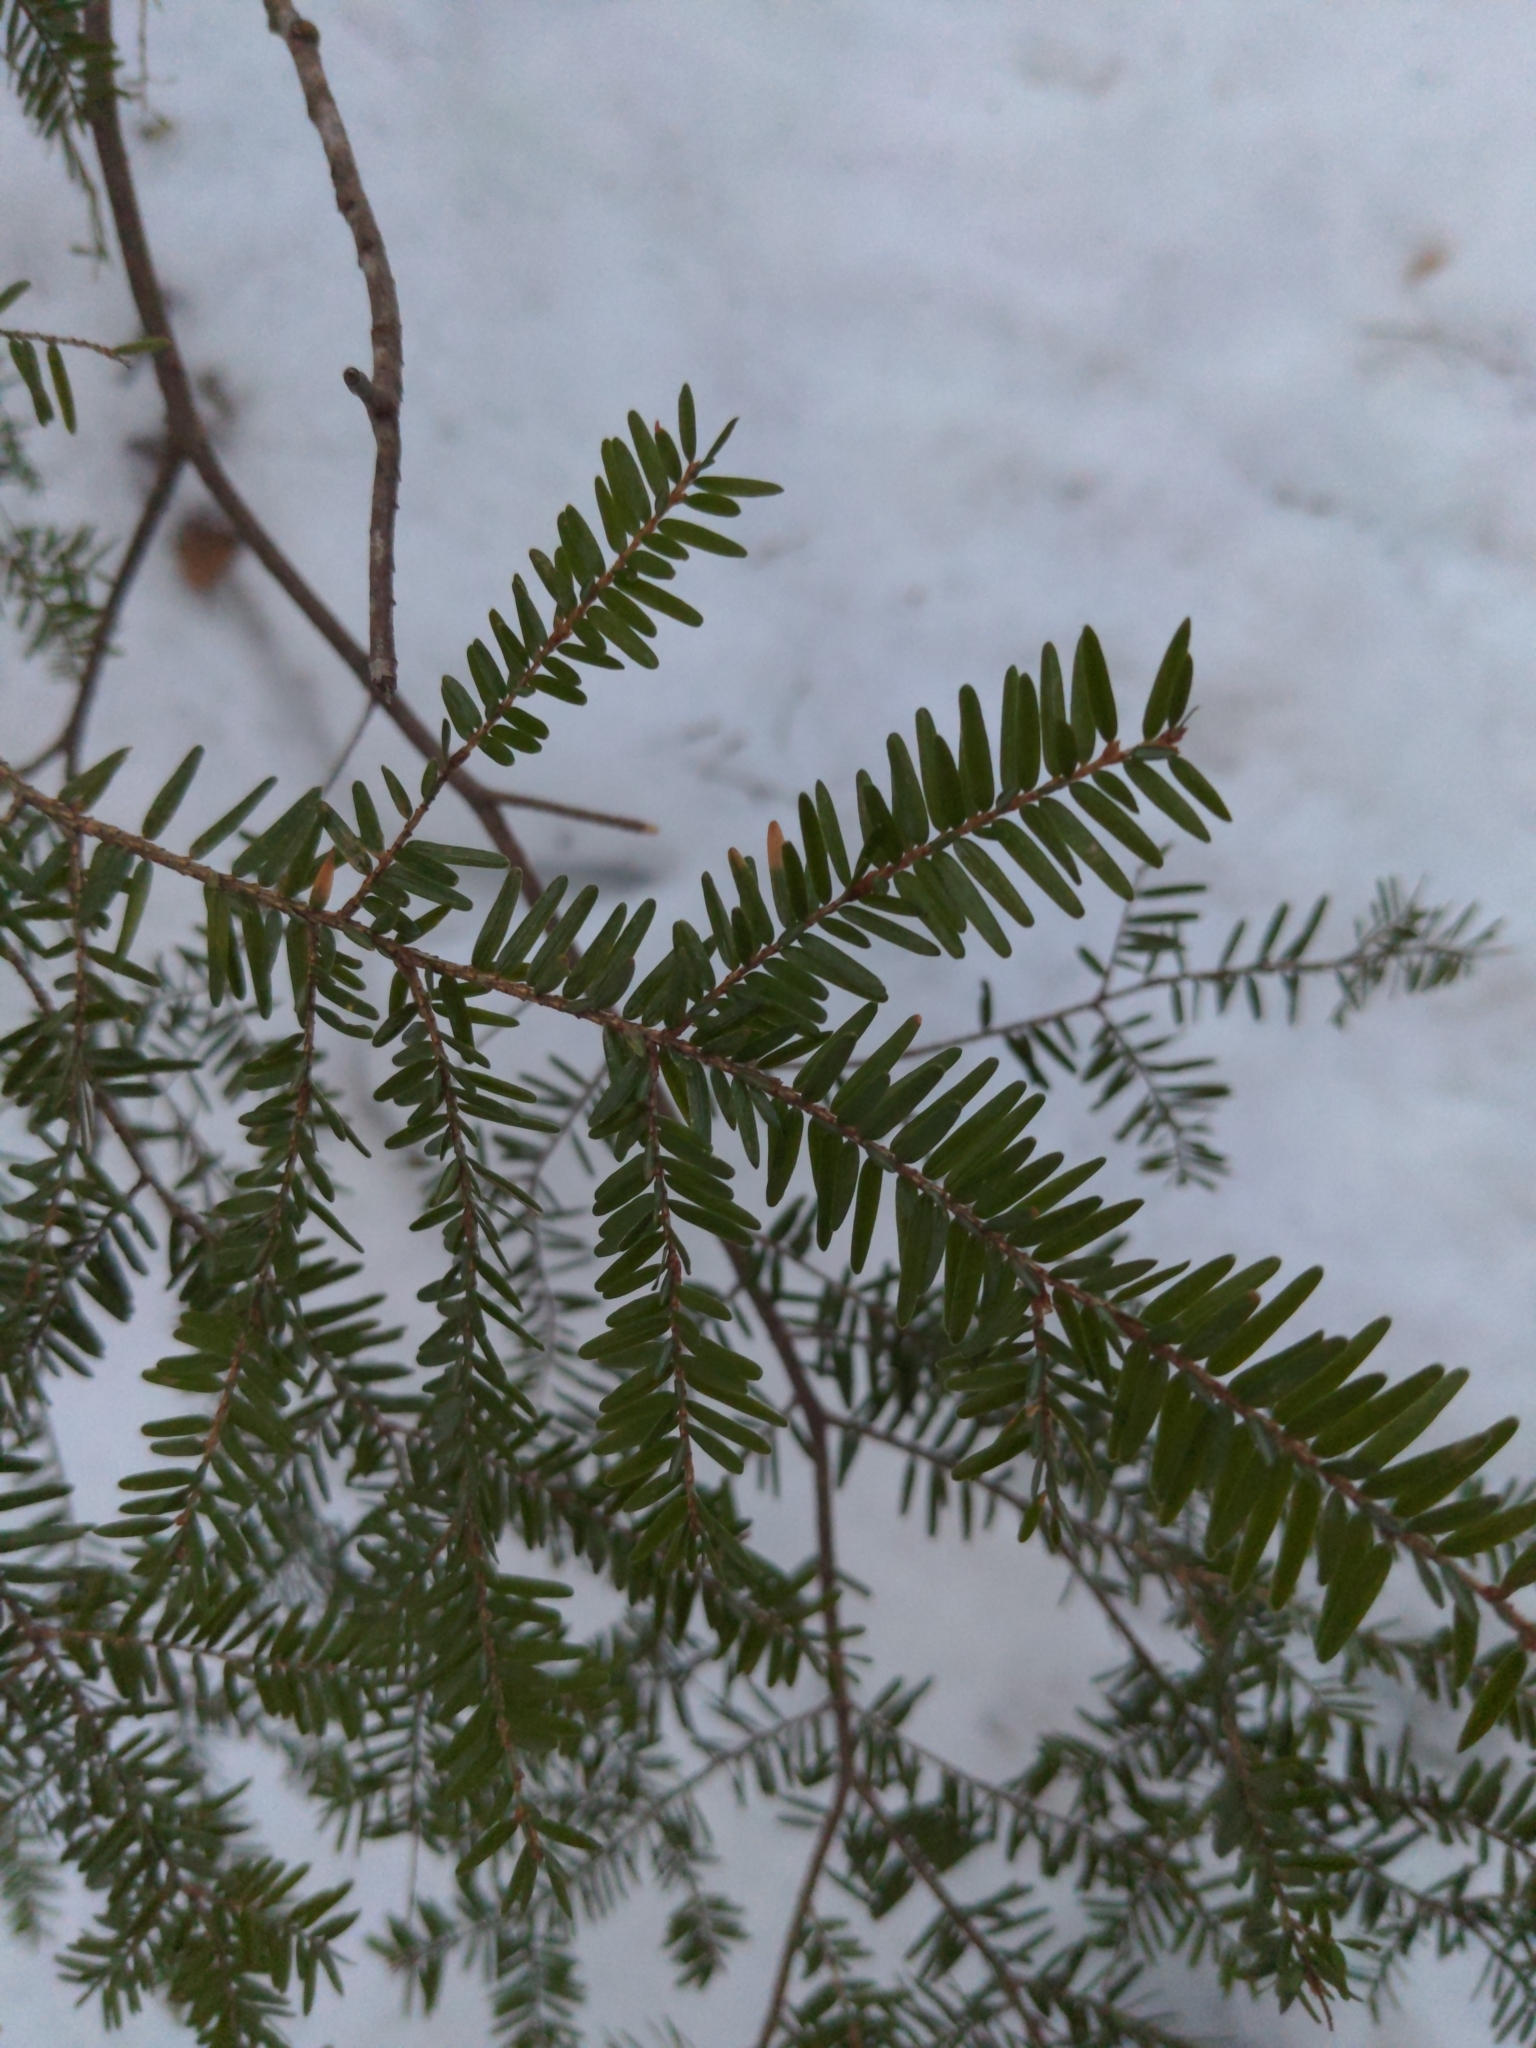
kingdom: Plantae
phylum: Tracheophyta
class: Pinopsida
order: Pinales
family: Pinaceae
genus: Tsuga
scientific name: Tsuga canadensis
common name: Eastern hemlock
